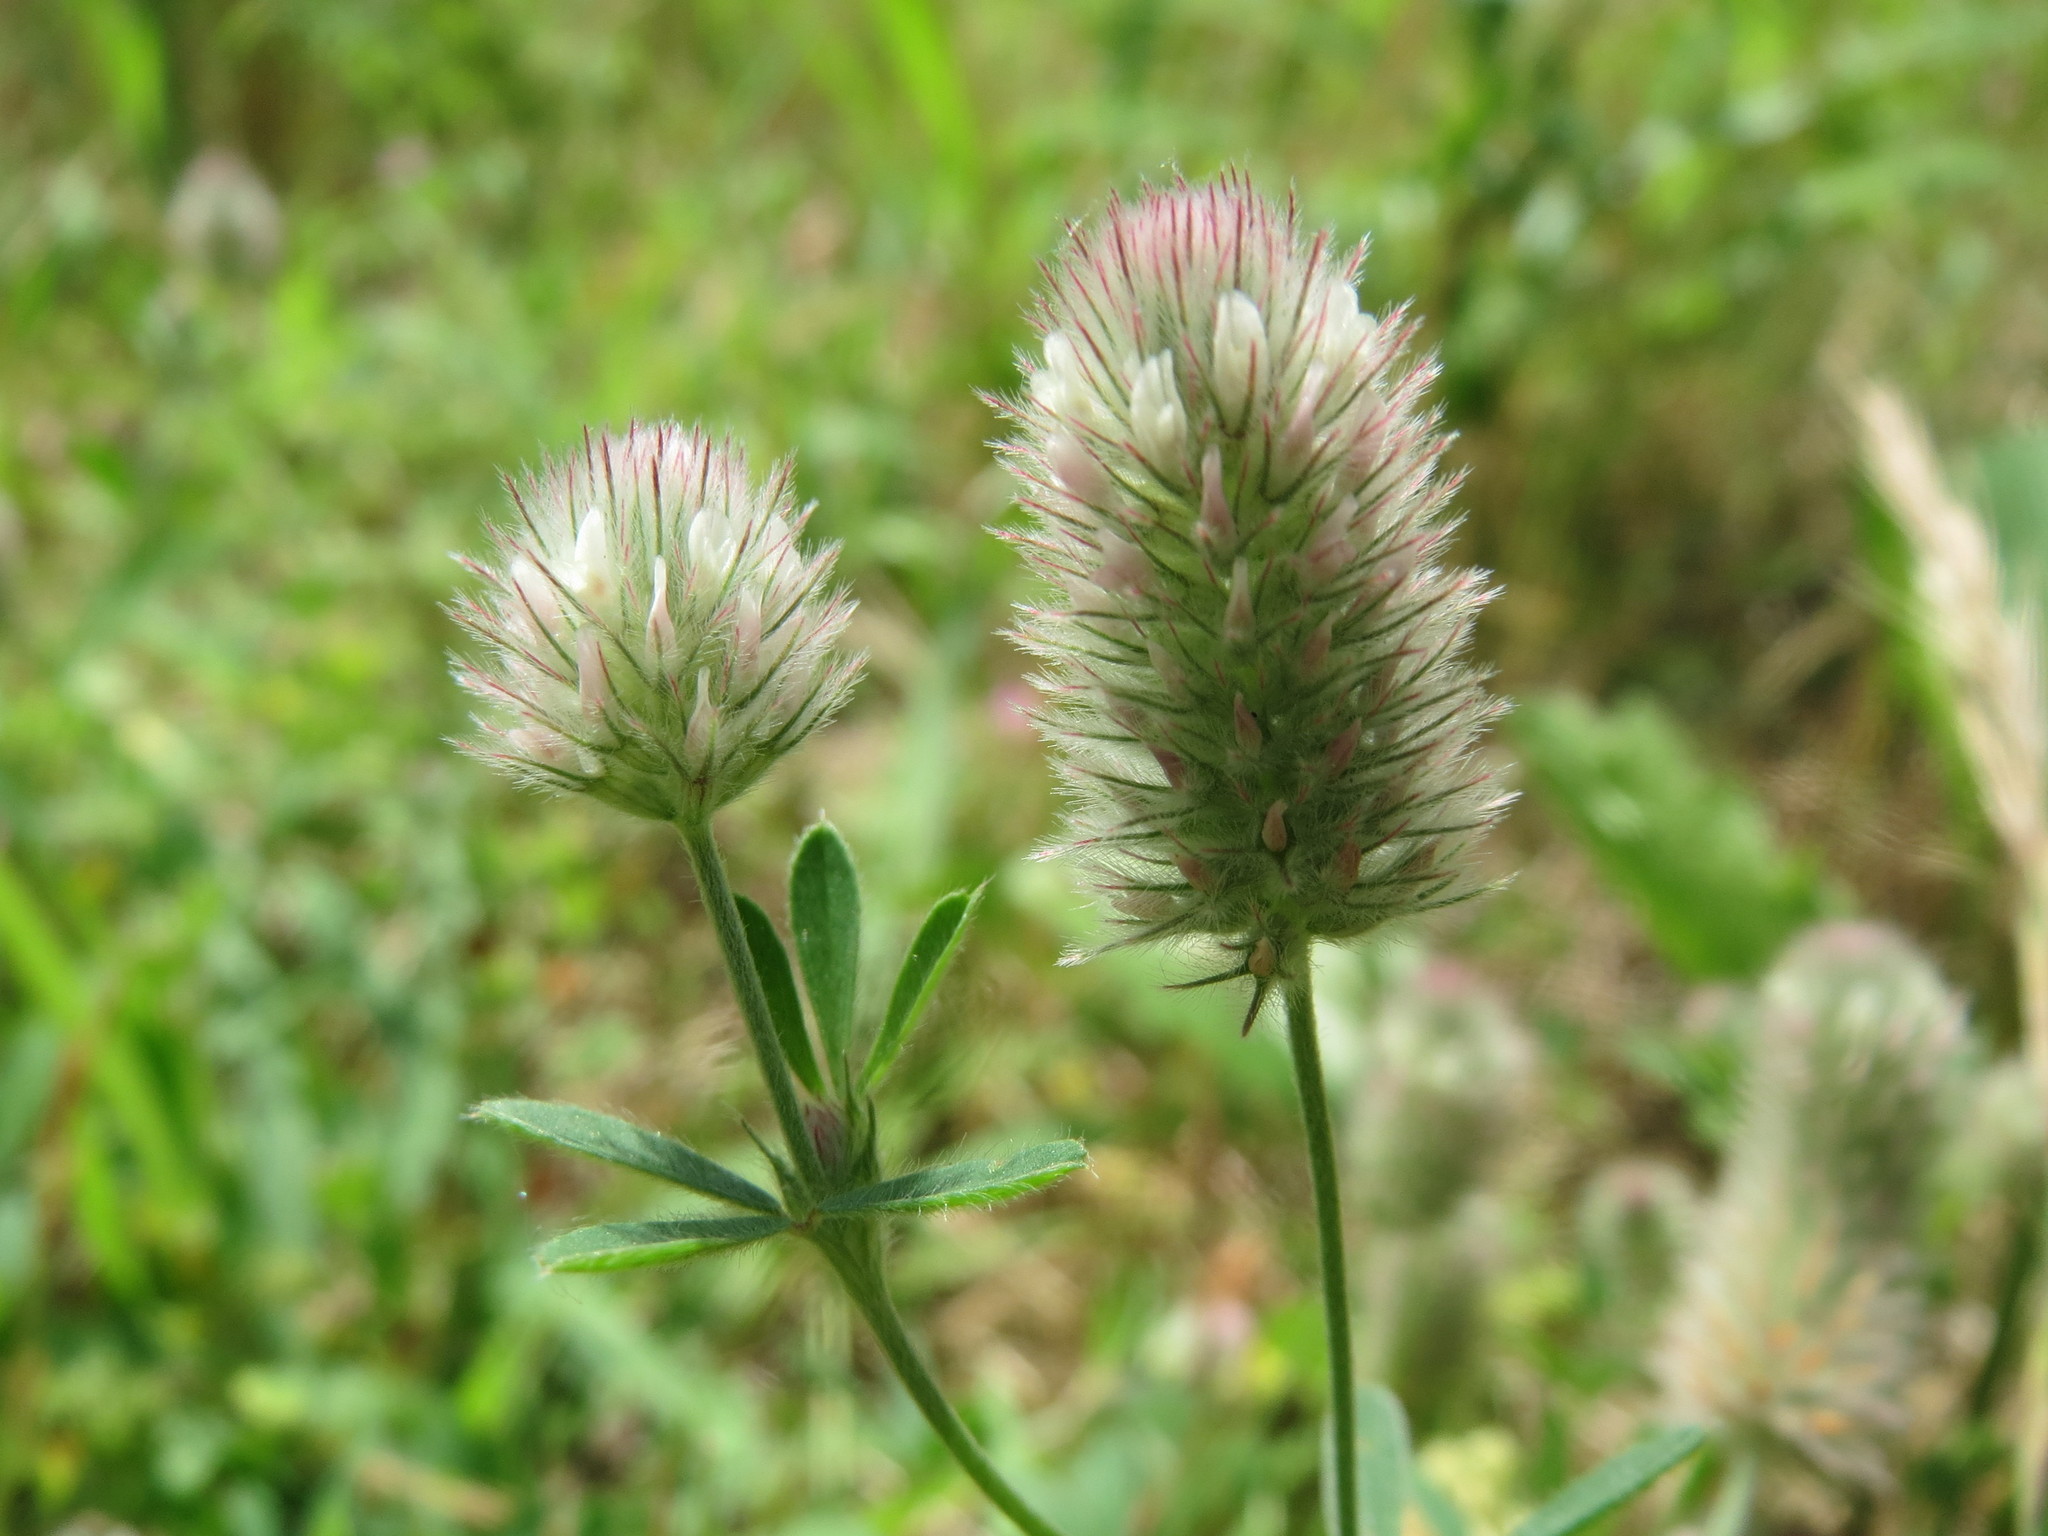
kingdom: Plantae
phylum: Tracheophyta
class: Magnoliopsida
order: Fabales
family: Fabaceae
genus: Trifolium
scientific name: Trifolium arvense
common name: Hare's-foot clover
